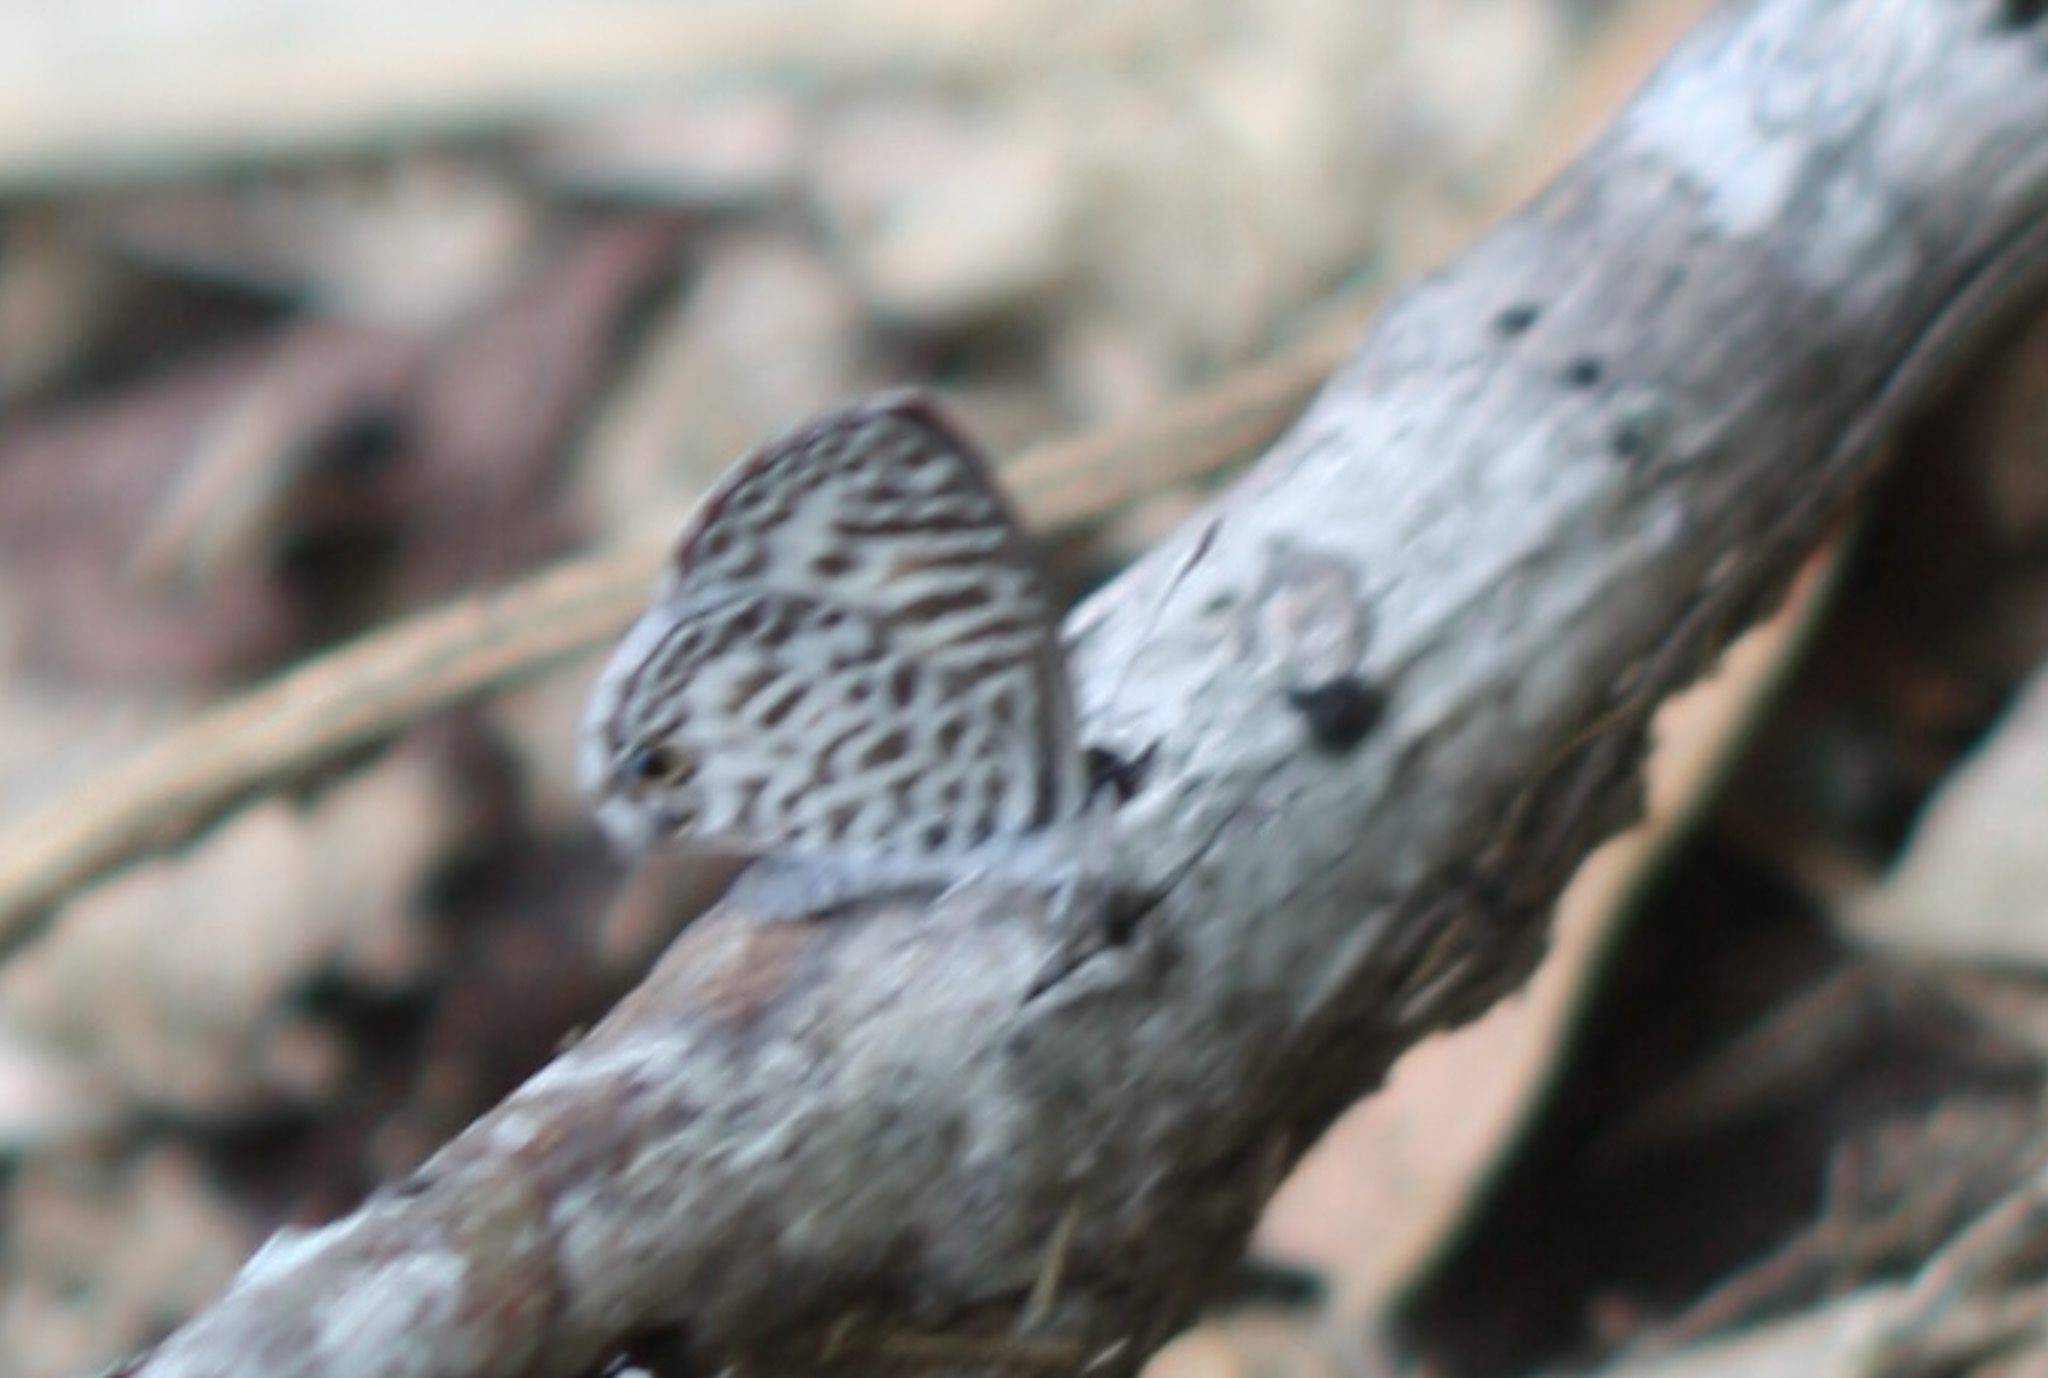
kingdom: Animalia
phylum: Arthropoda
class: Insecta
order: Lepidoptera
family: Lycaenidae
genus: Leptotes
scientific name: Leptotes cassius
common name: Cassius blue
